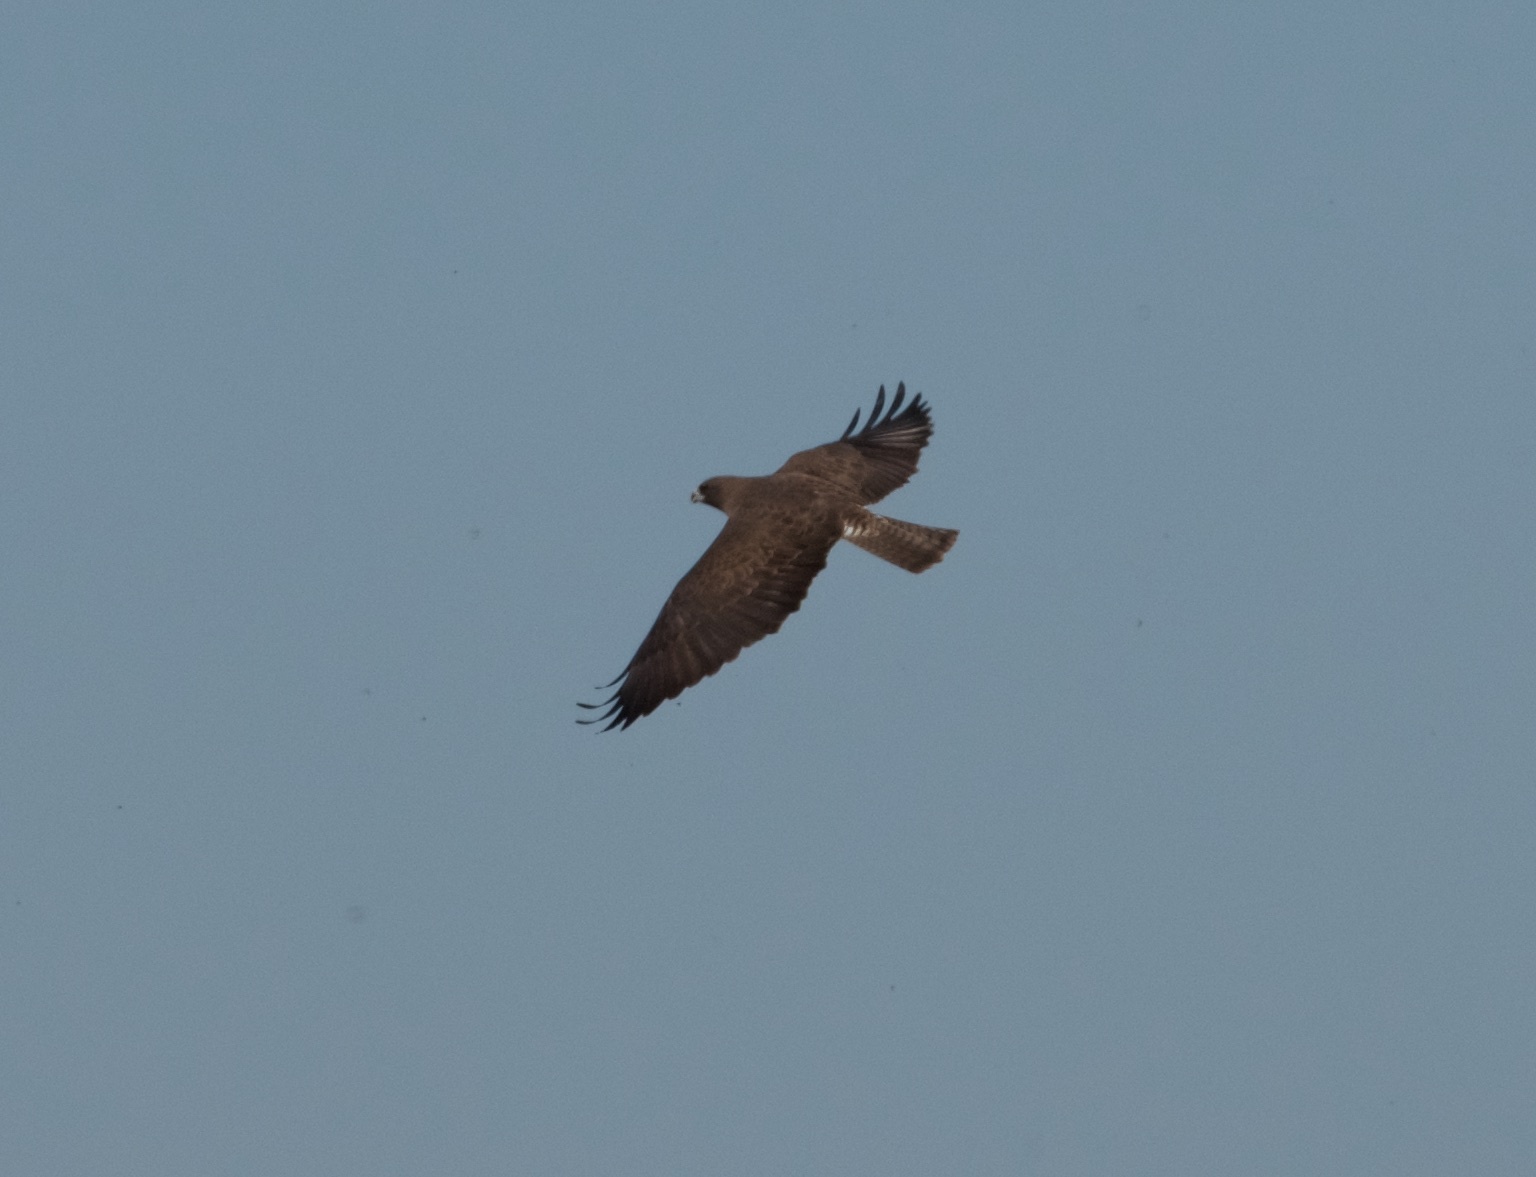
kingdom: Animalia
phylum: Chordata
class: Aves
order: Accipitriformes
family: Accipitridae
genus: Buteo
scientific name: Buteo swainsoni
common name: Swainson's hawk
